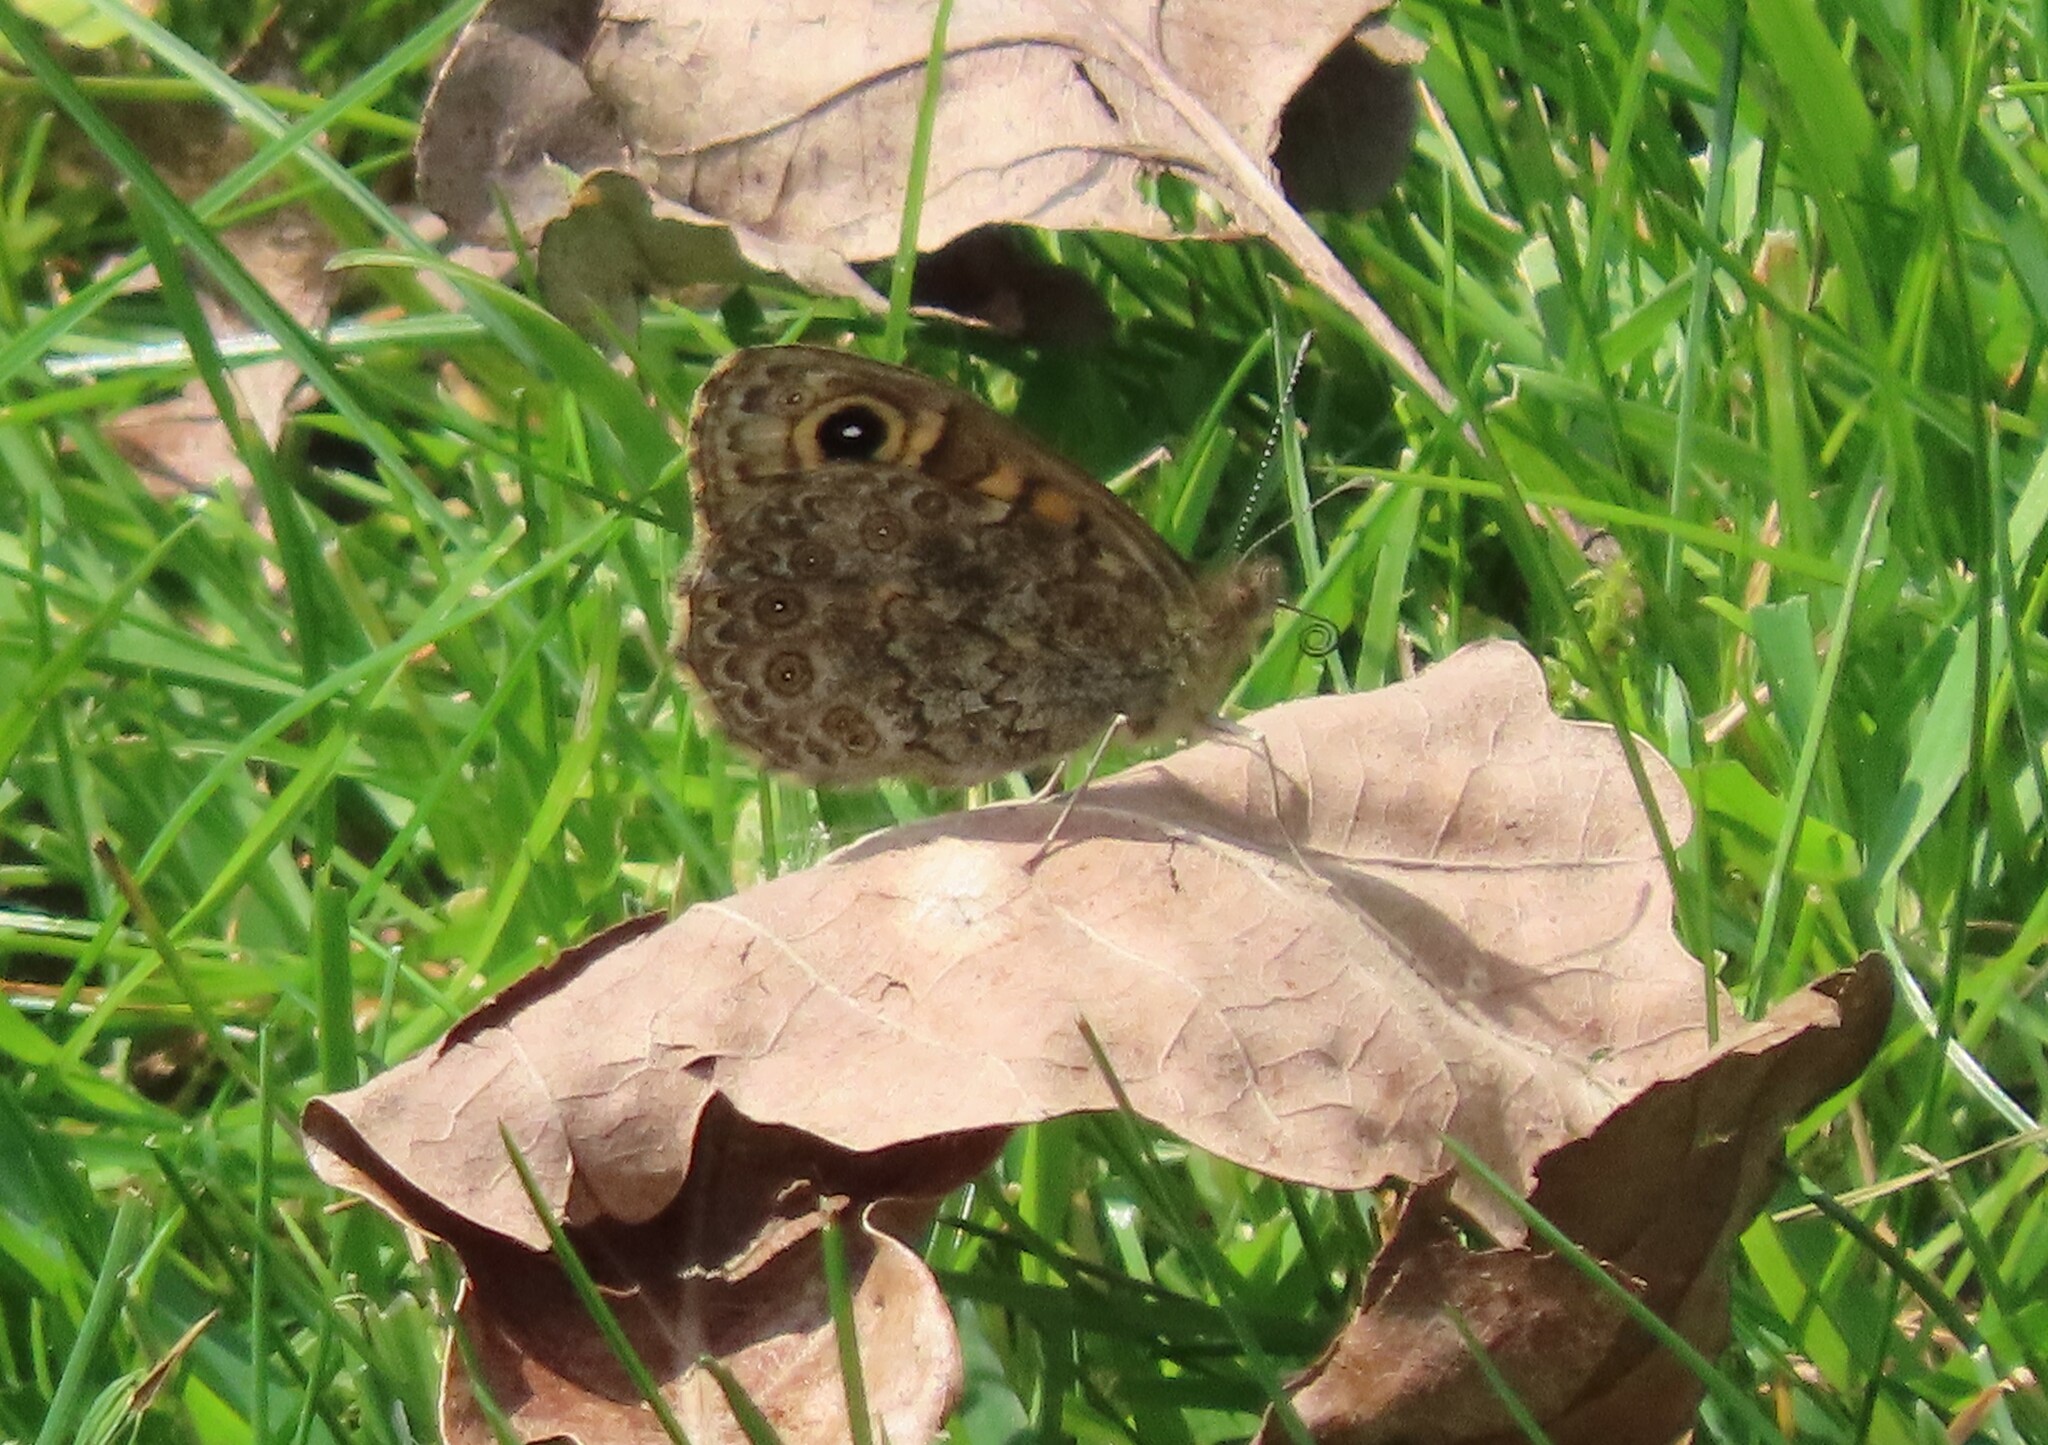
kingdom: Animalia
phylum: Arthropoda
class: Insecta
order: Lepidoptera
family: Nymphalidae
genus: Pararge
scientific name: Pararge Lasiommata megera
